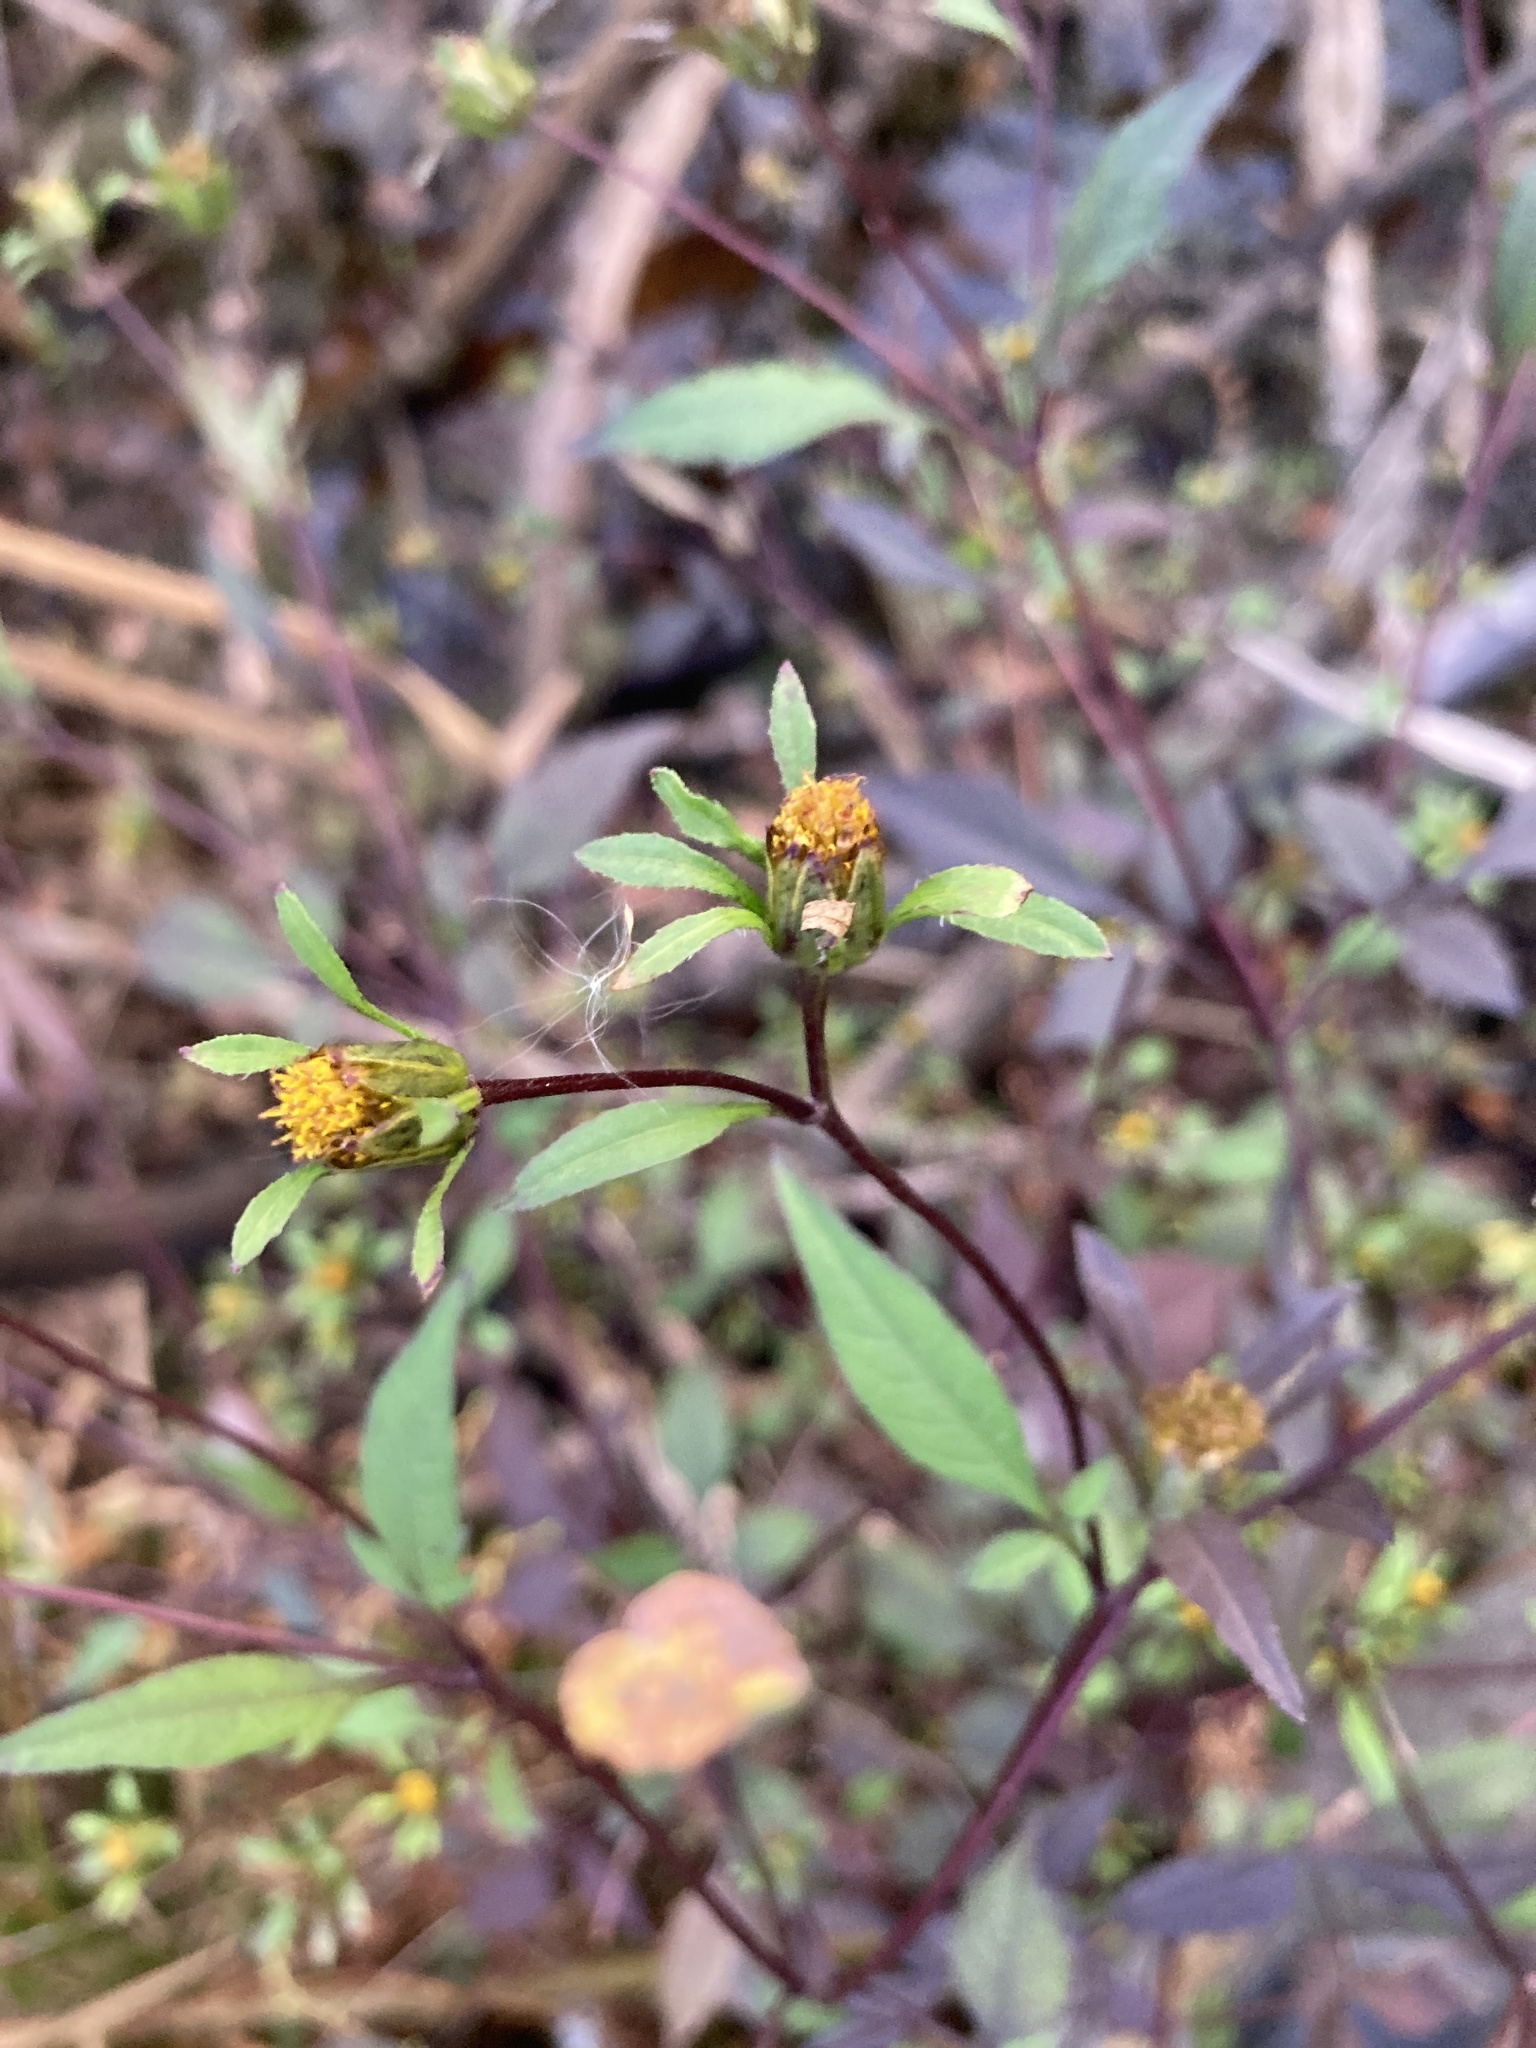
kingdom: Plantae
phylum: Tracheophyta
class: Magnoliopsida
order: Asterales
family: Asteraceae
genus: Bidens
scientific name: Bidens frondosa
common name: Beggarticks
